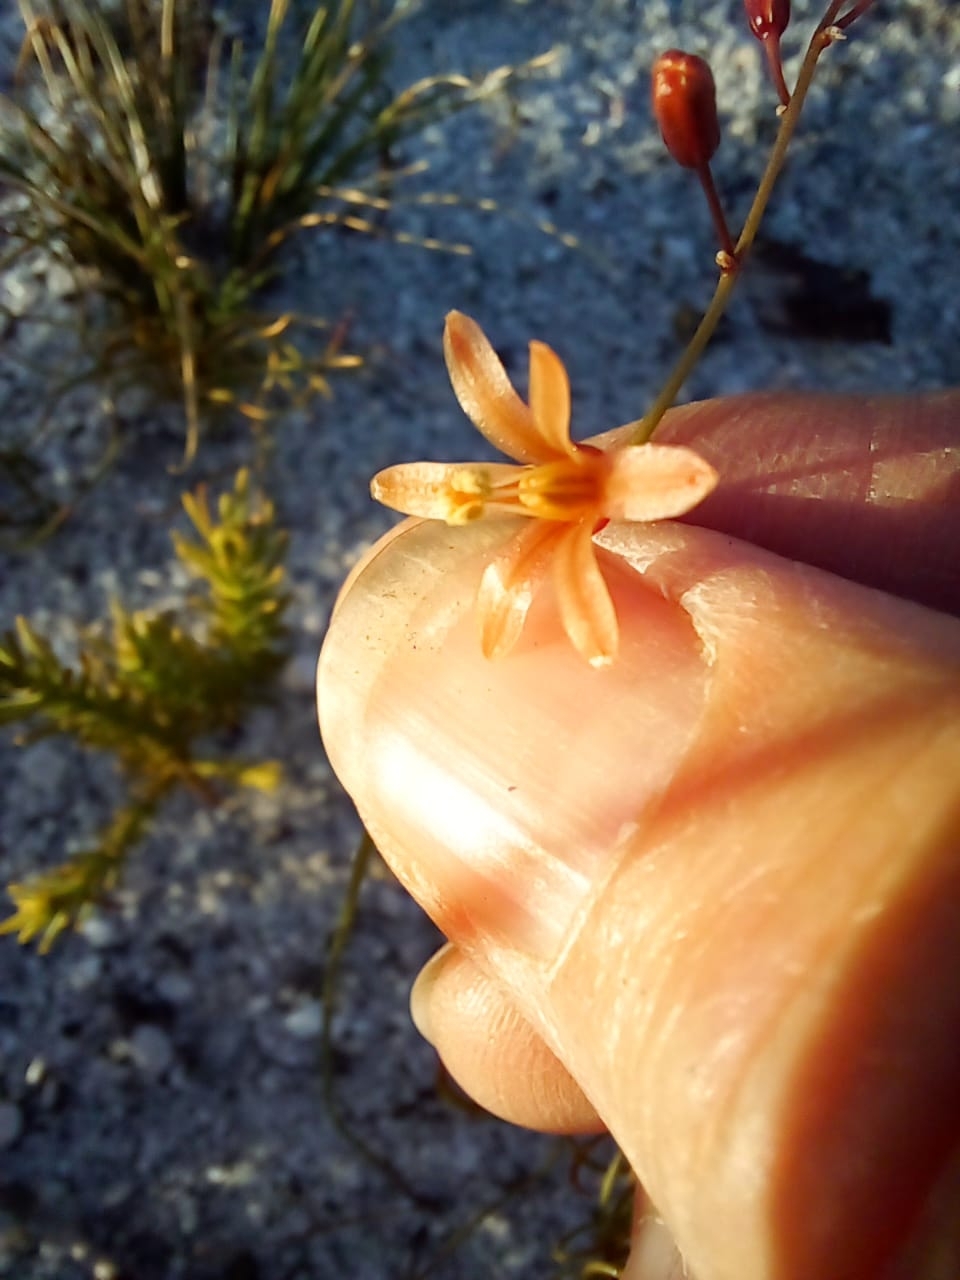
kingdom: Plantae
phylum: Tracheophyta
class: Liliopsida
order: Asparagales
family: Asparagaceae
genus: Drimia
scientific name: Drimia hesperantha
